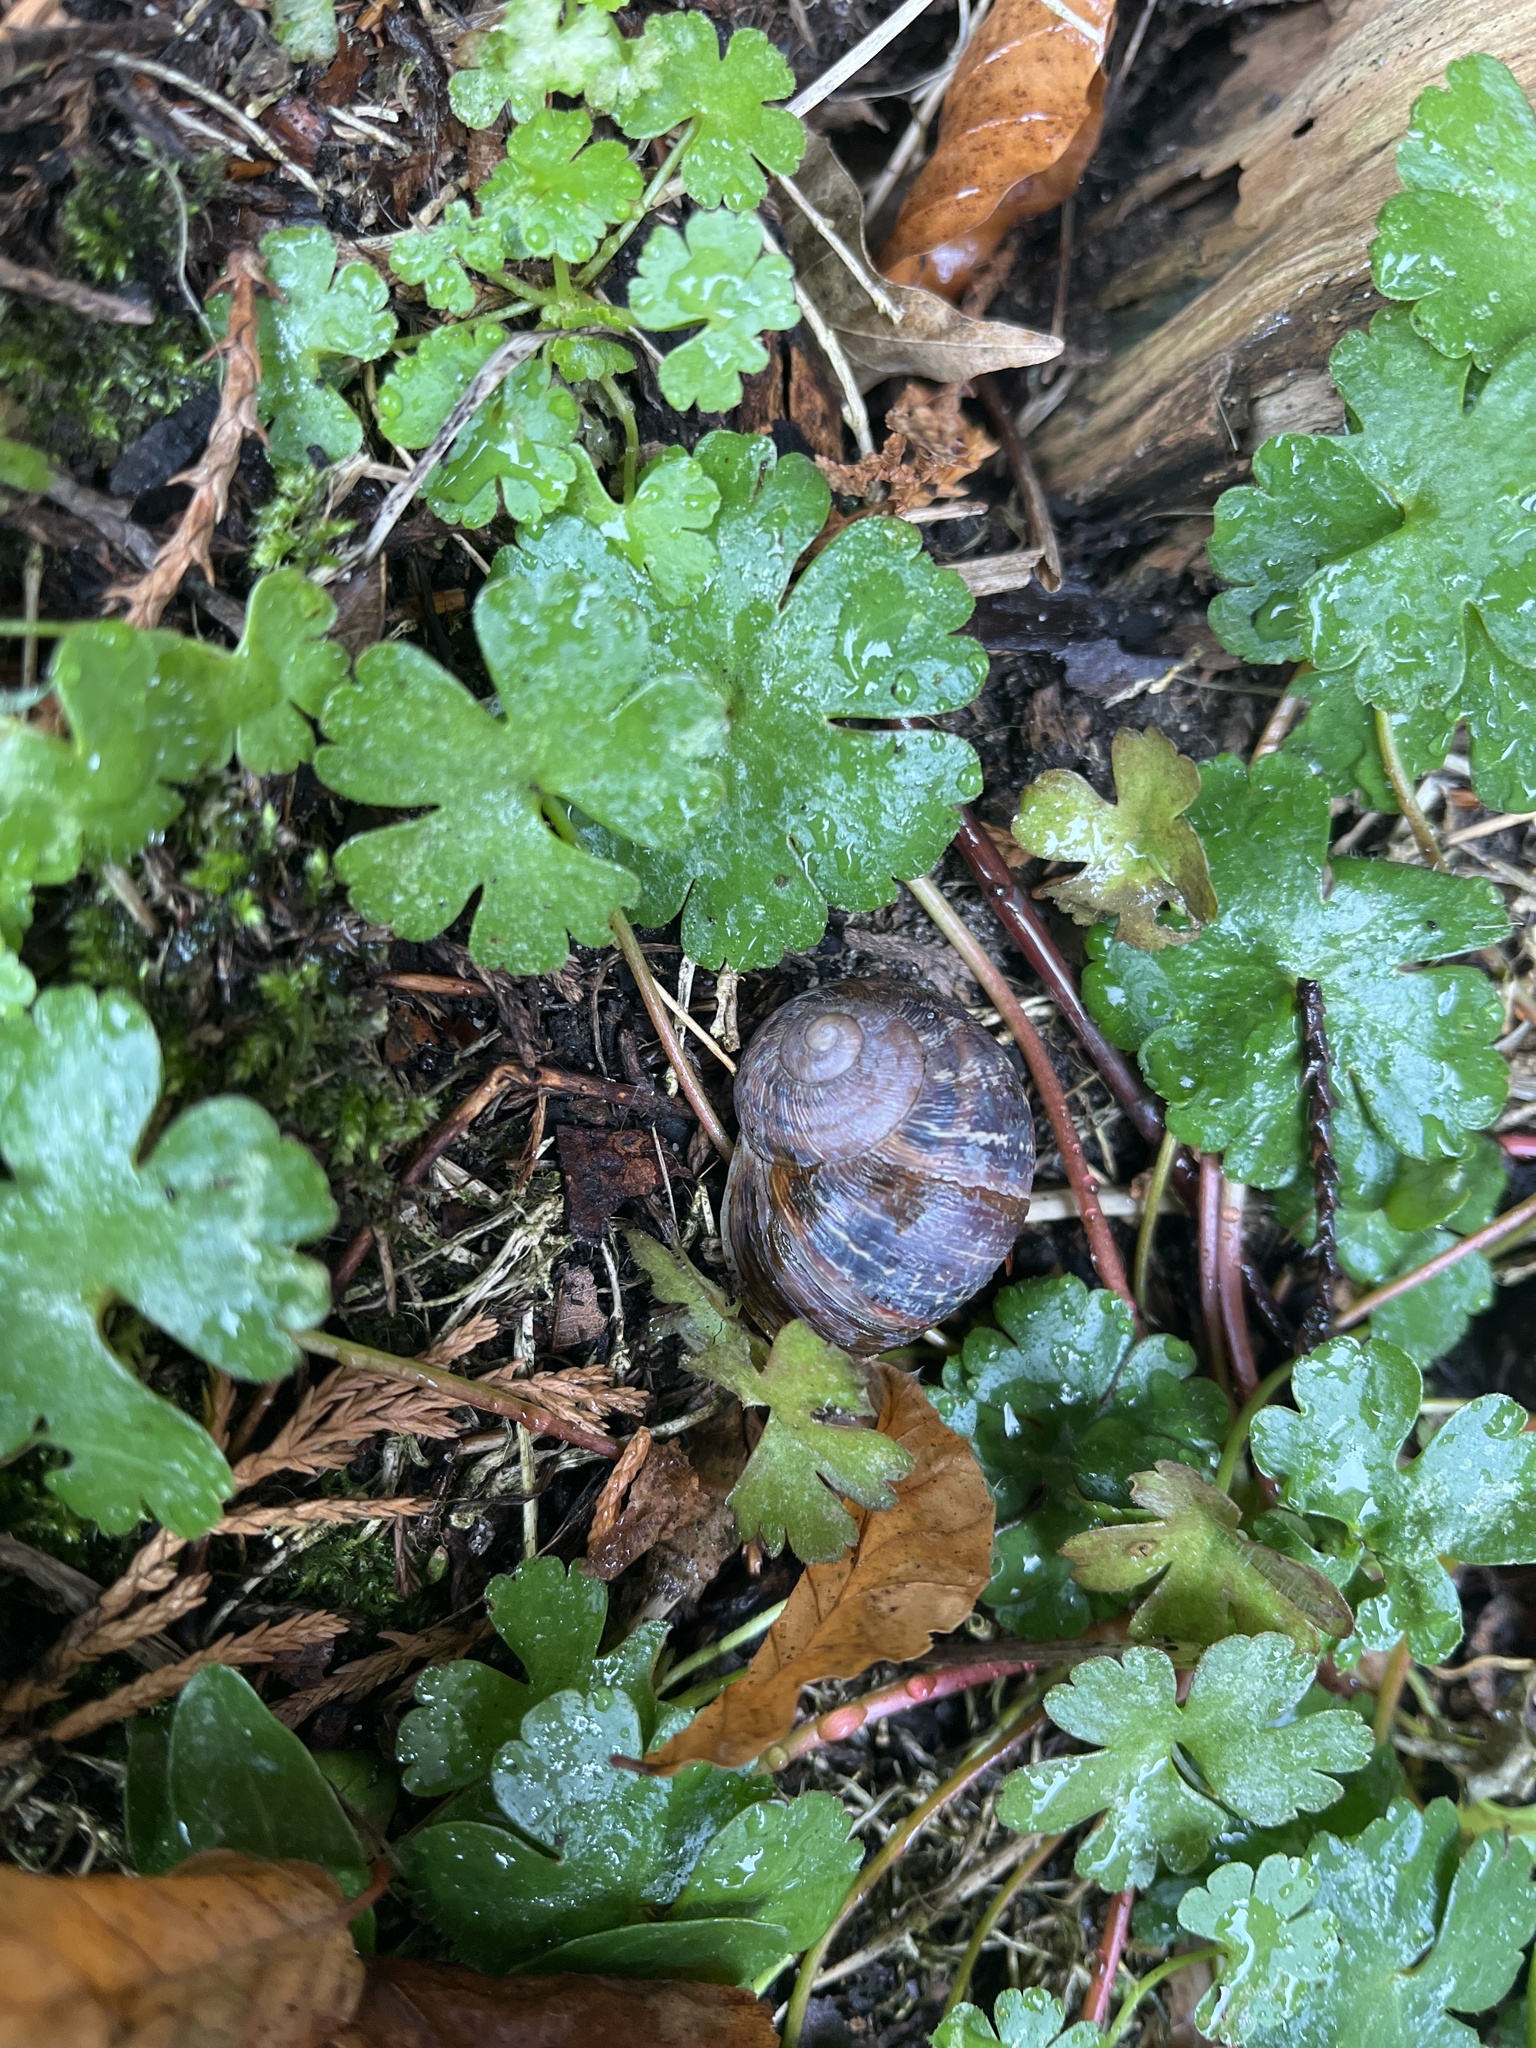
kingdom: Animalia
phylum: Mollusca
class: Gastropoda
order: Stylommatophora
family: Helicidae
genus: Cornu
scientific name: Cornu aspersum
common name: Brown garden snail
